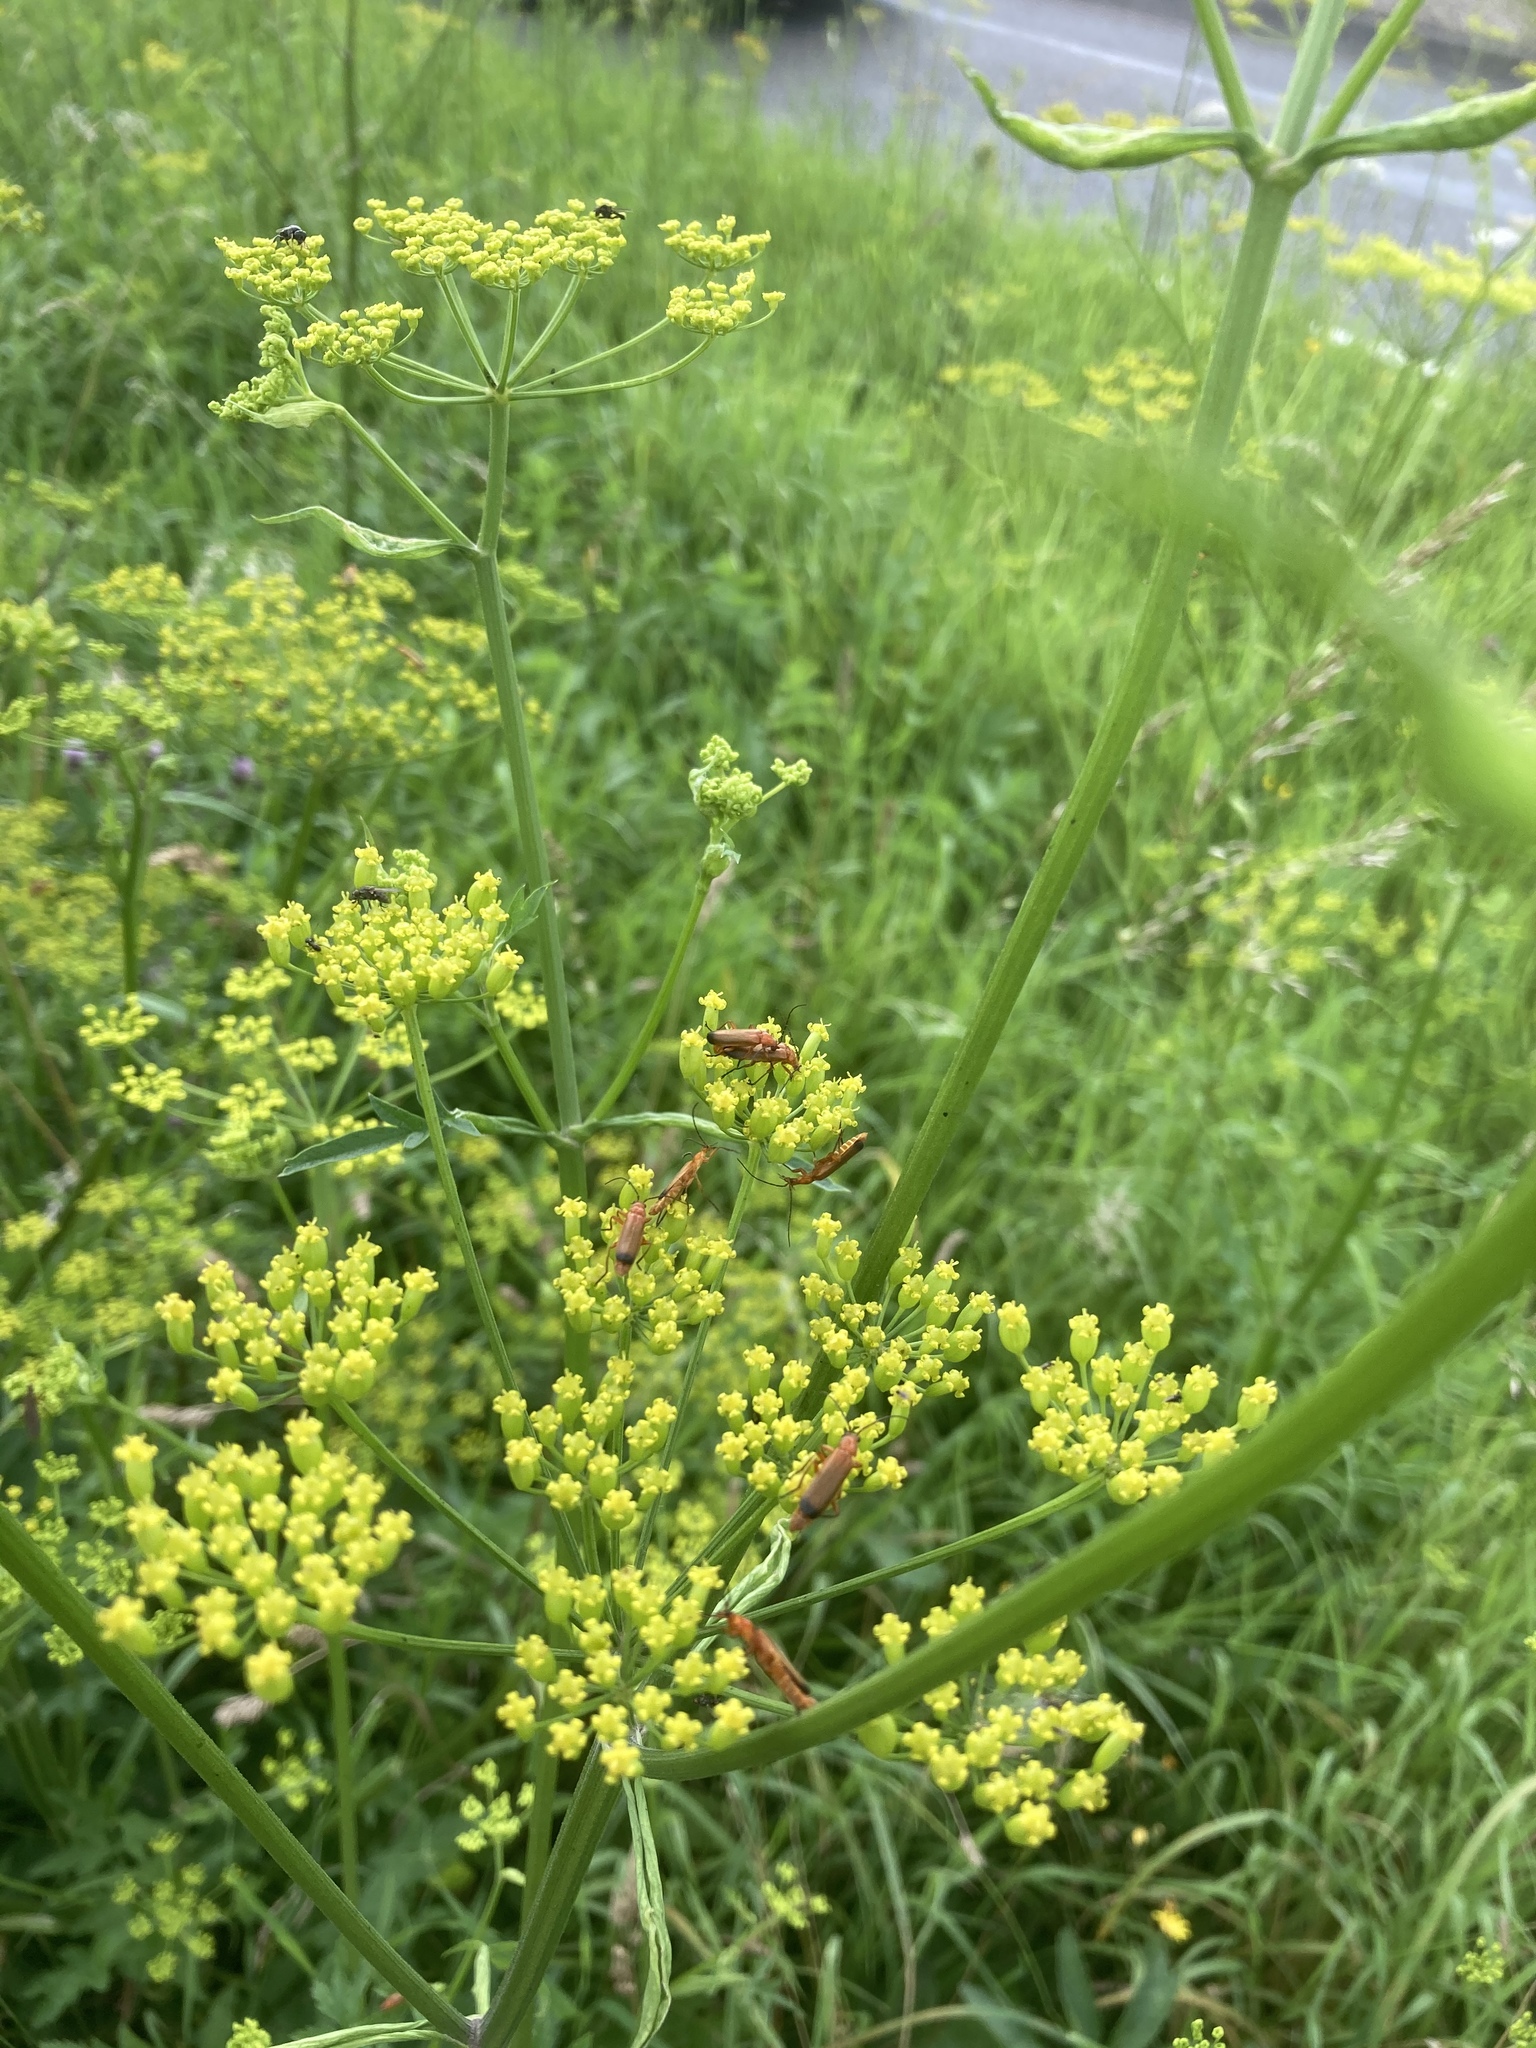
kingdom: Animalia
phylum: Arthropoda
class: Insecta
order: Coleoptera
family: Cantharidae
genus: Rhagonycha
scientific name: Rhagonycha fulva
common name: Common red soldier beetle
